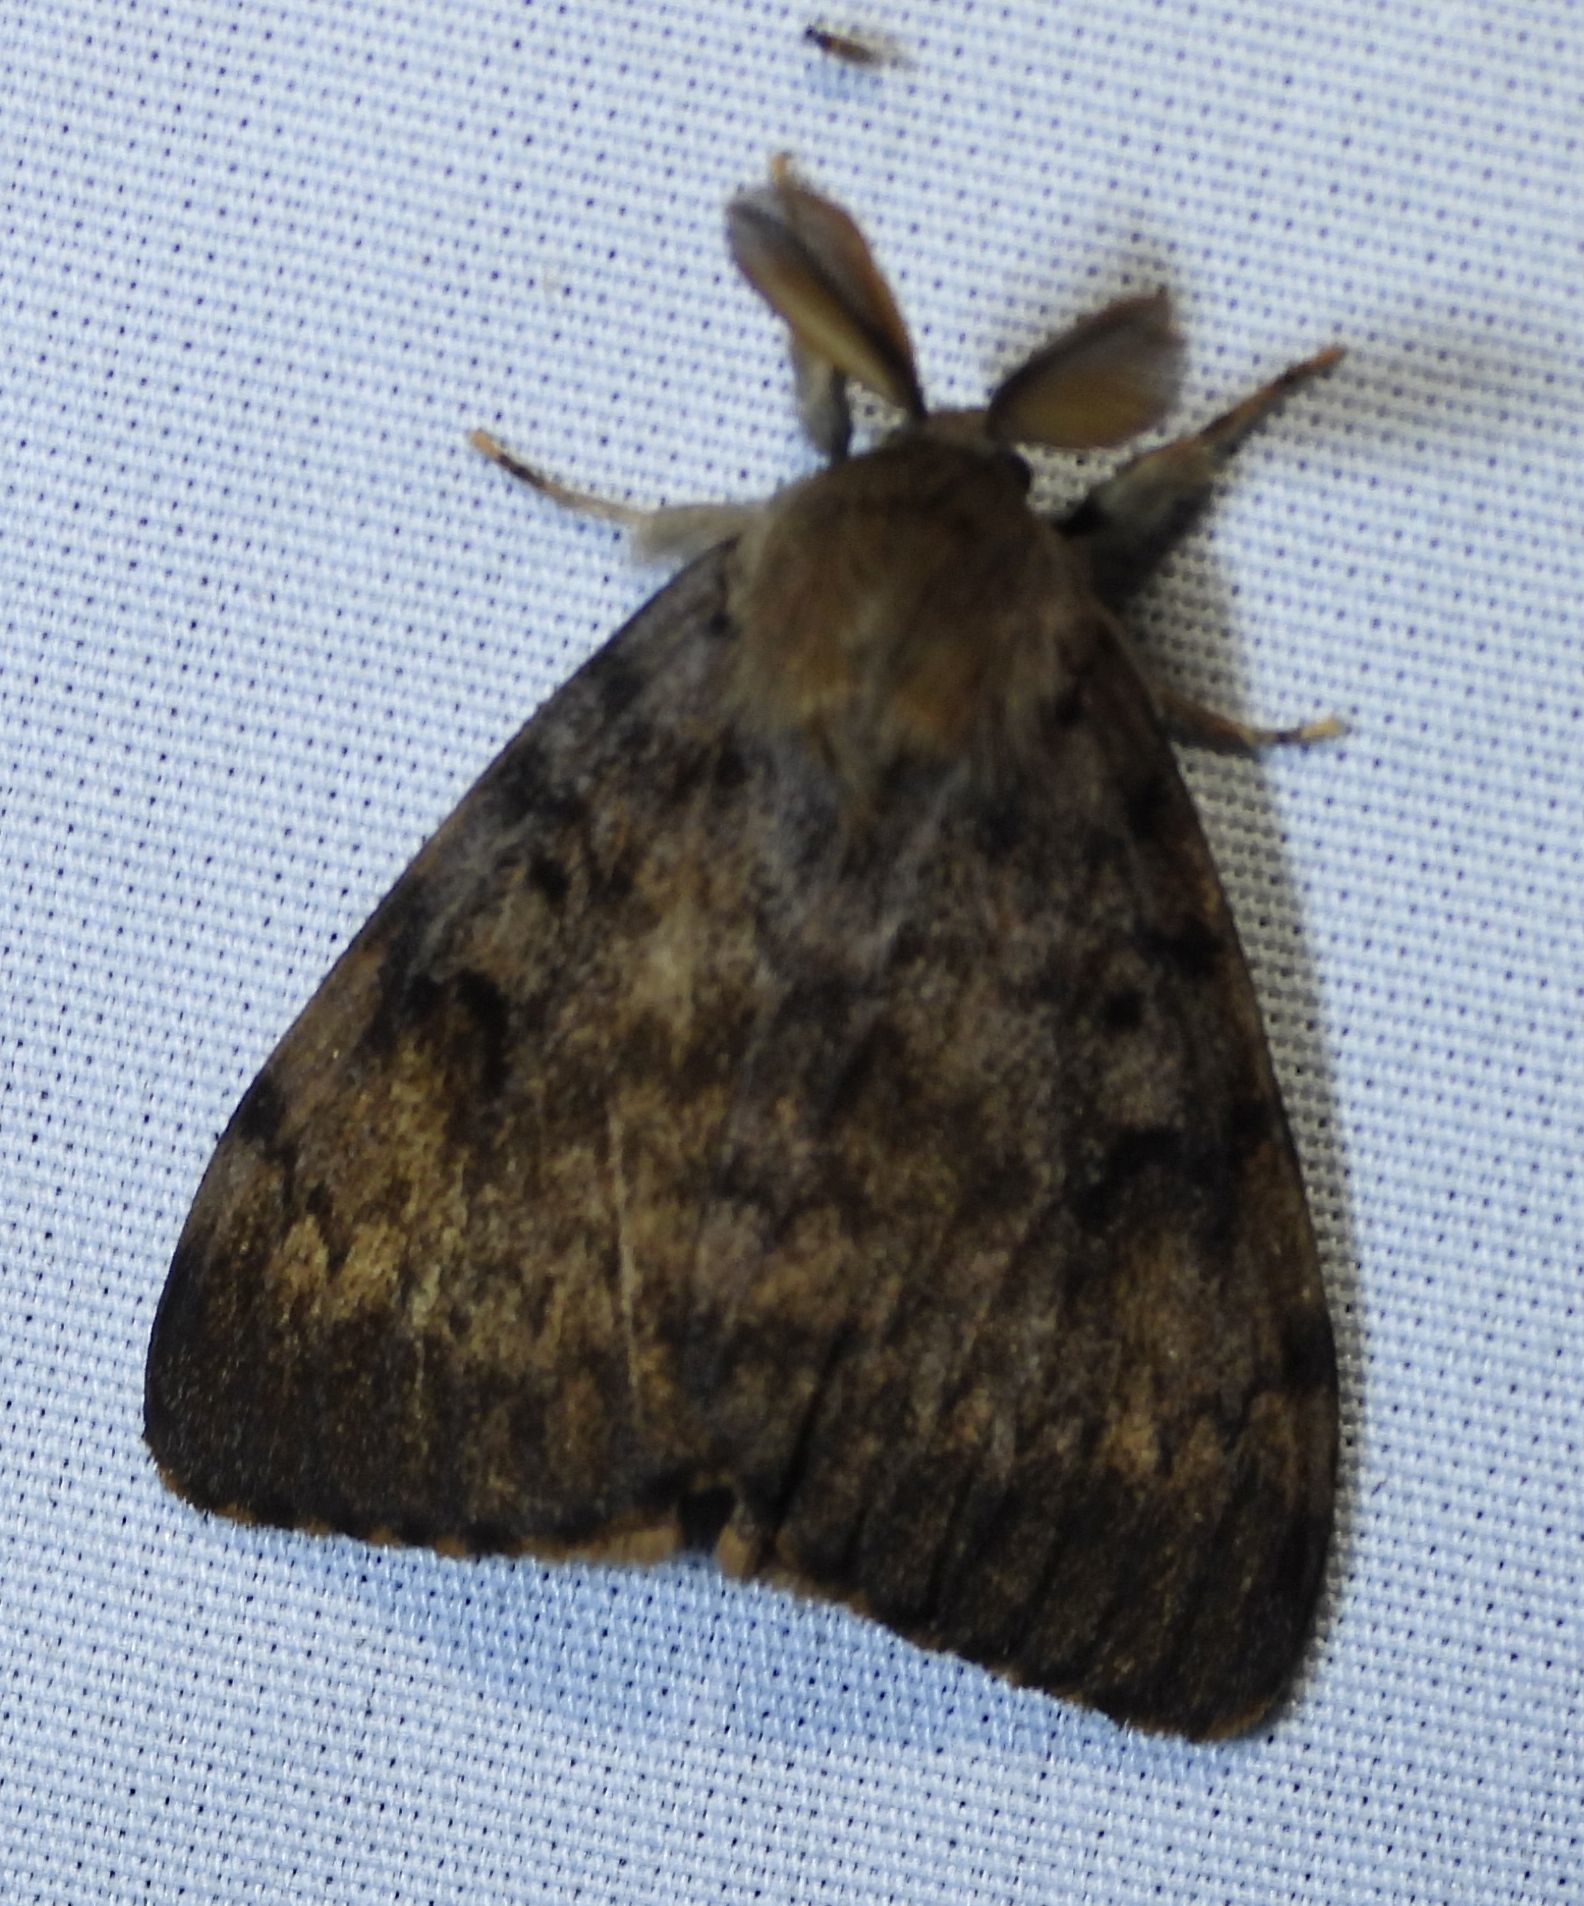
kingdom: Animalia
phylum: Arthropoda
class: Insecta
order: Lepidoptera
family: Erebidae
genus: Lymantria
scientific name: Lymantria dispar
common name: Gypsy moth
